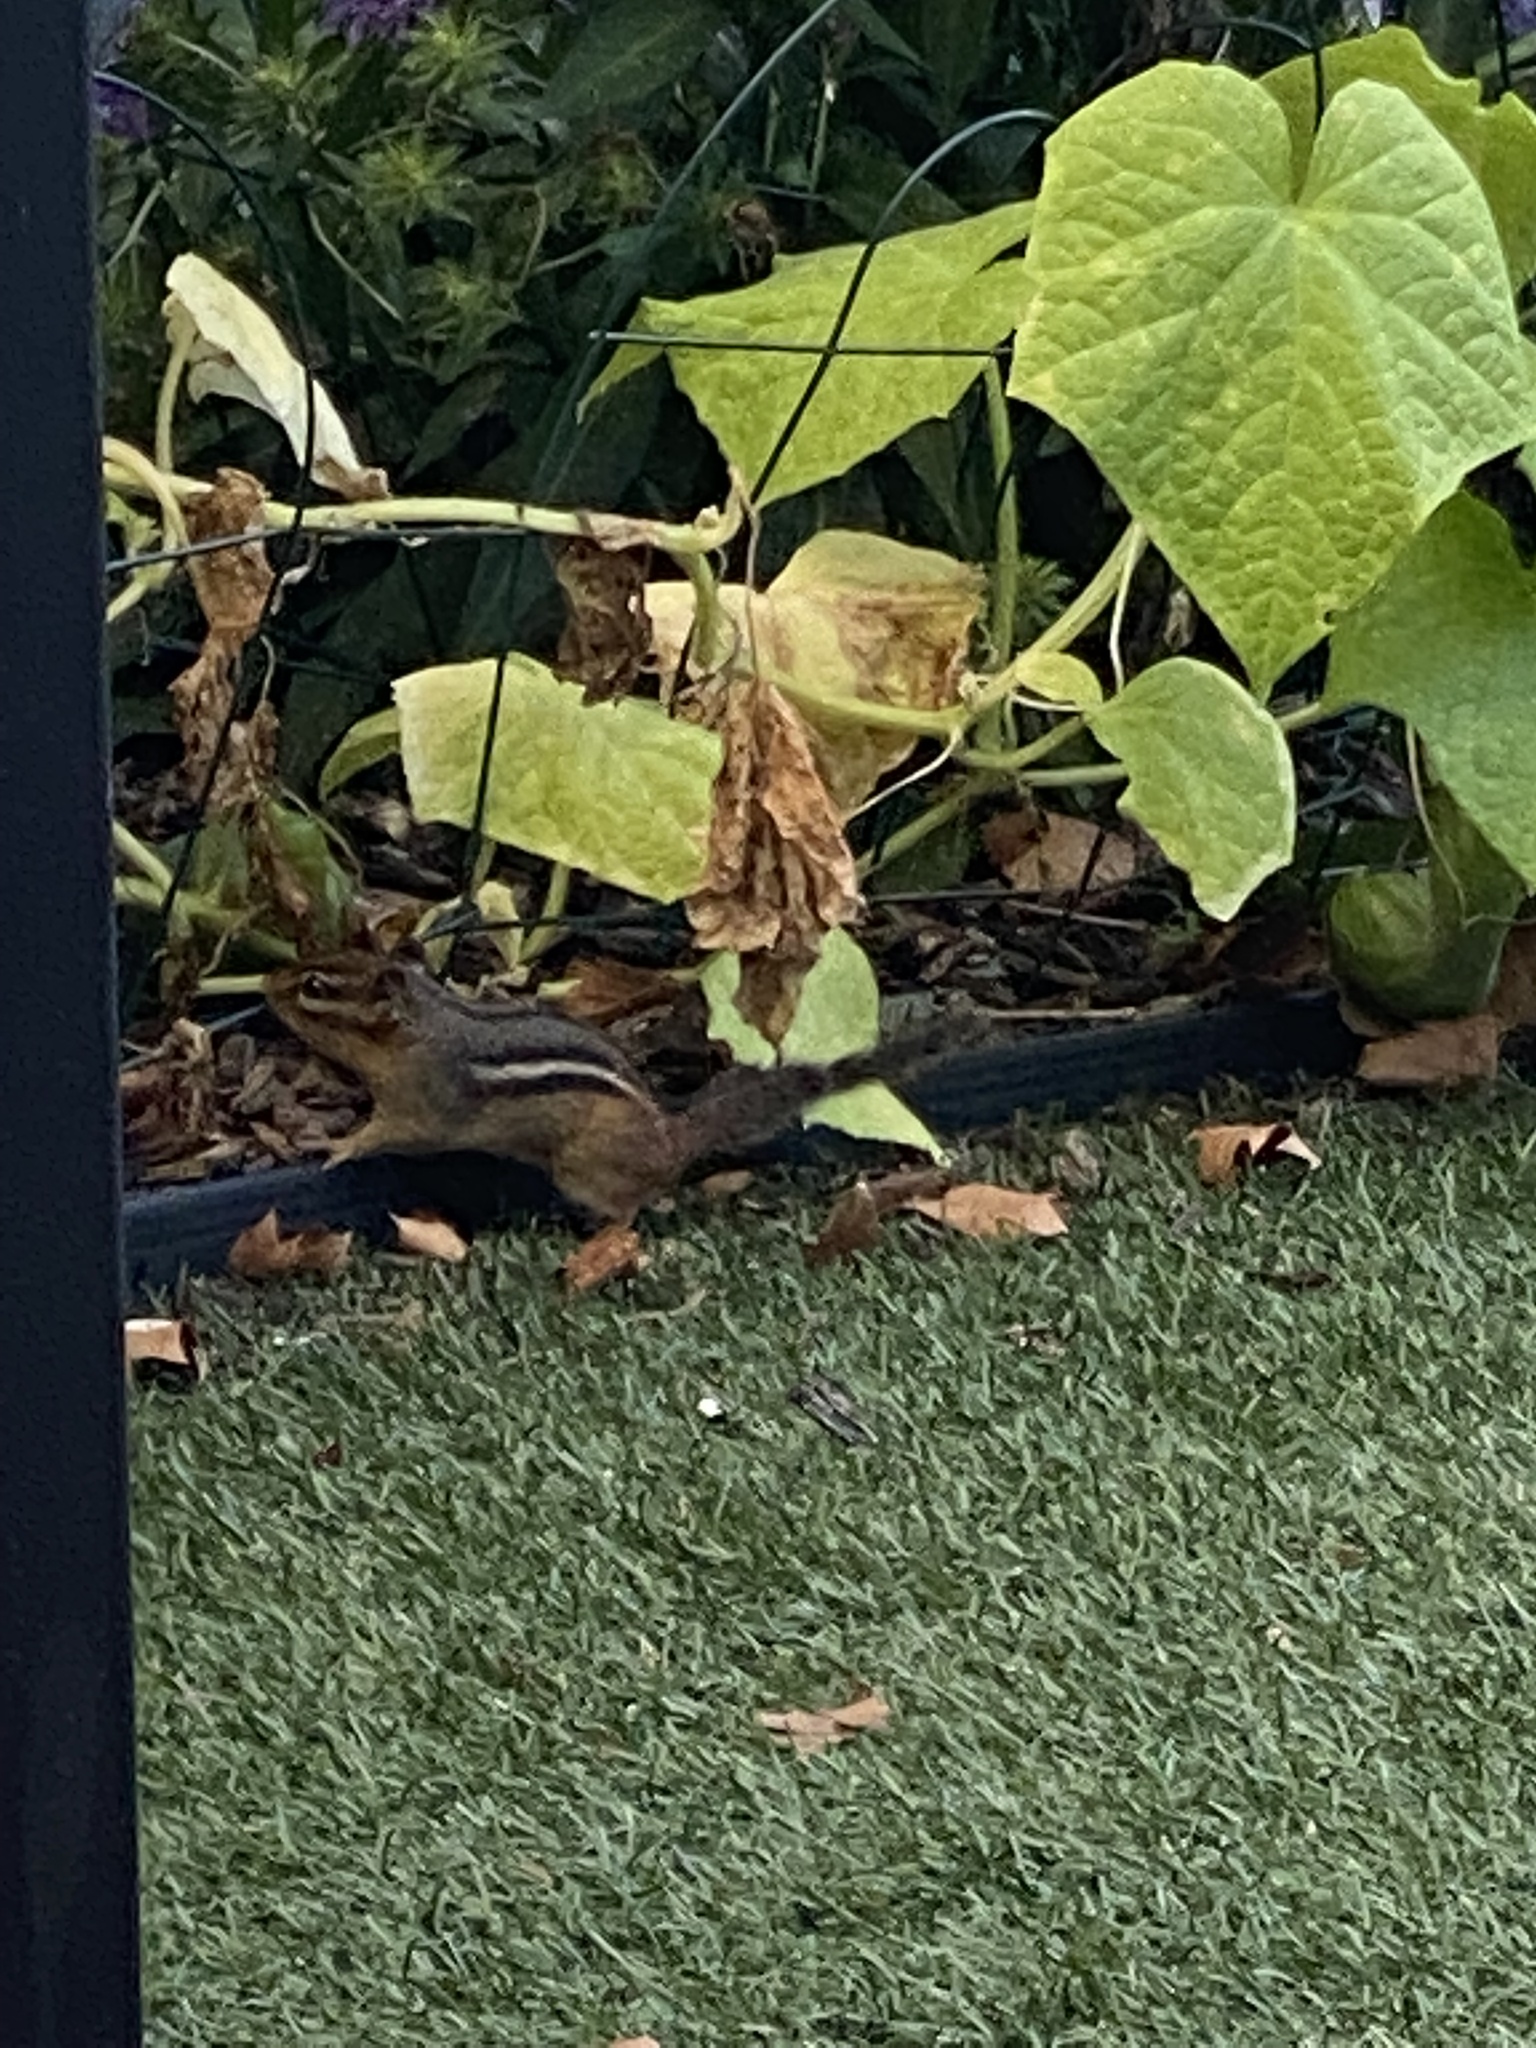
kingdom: Animalia
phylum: Chordata
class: Mammalia
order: Rodentia
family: Sciuridae
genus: Tamias
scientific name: Tamias striatus
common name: Eastern chipmunk
